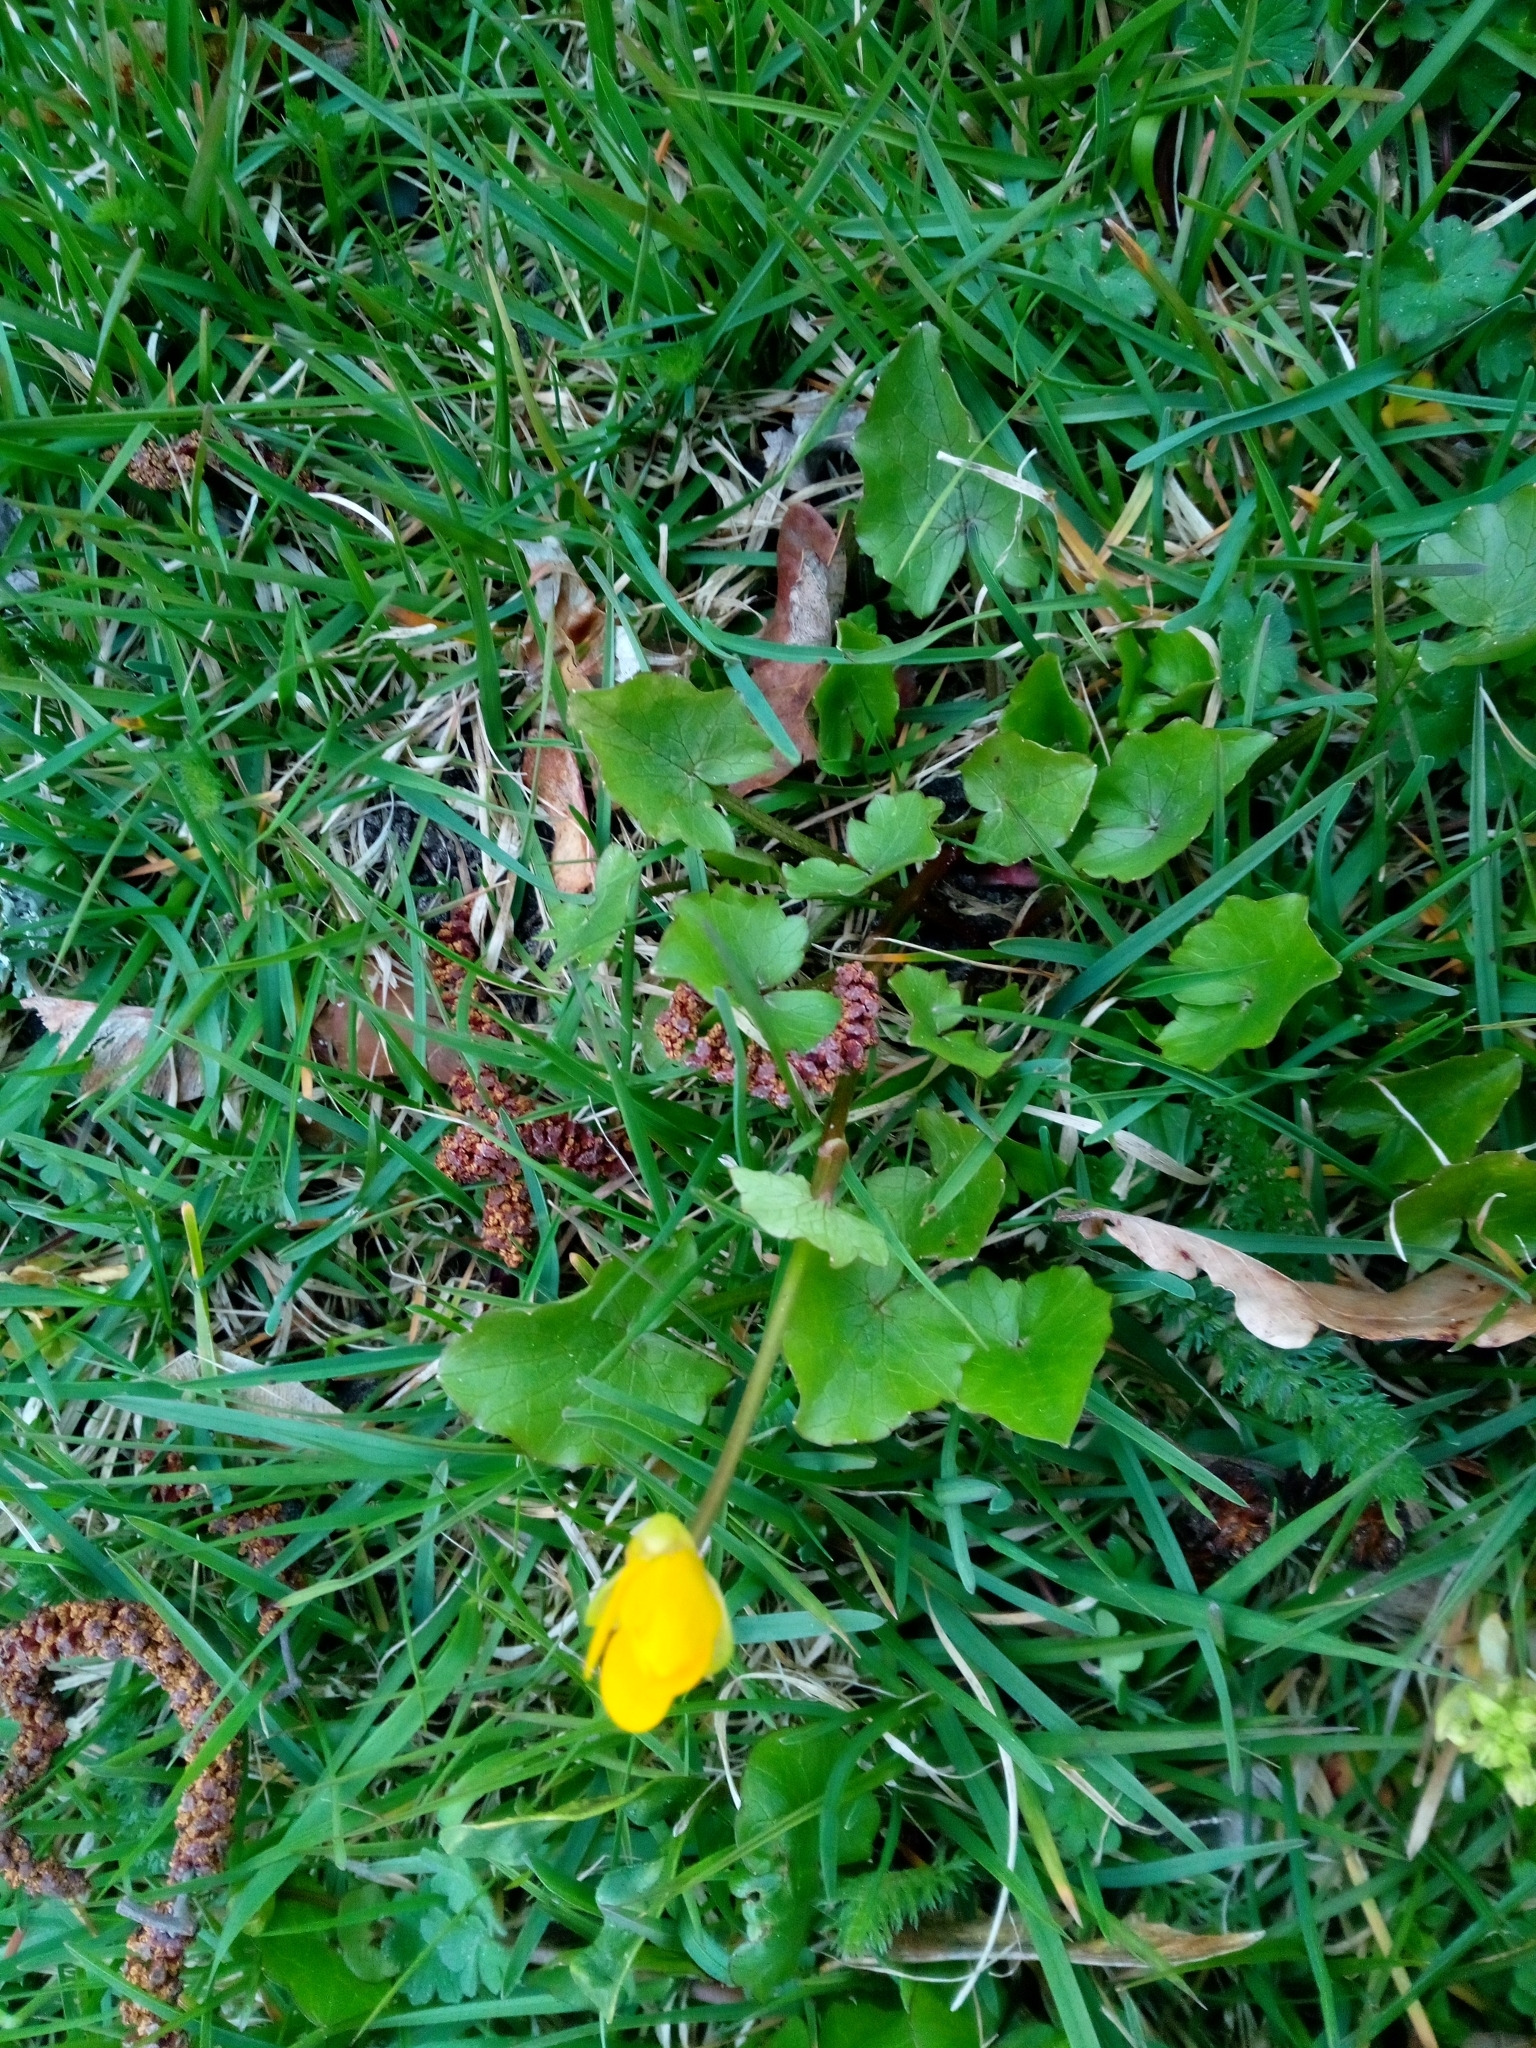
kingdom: Plantae
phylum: Tracheophyta
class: Magnoliopsida
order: Ranunculales
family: Ranunculaceae
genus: Ficaria
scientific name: Ficaria verna
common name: Lesser celandine
